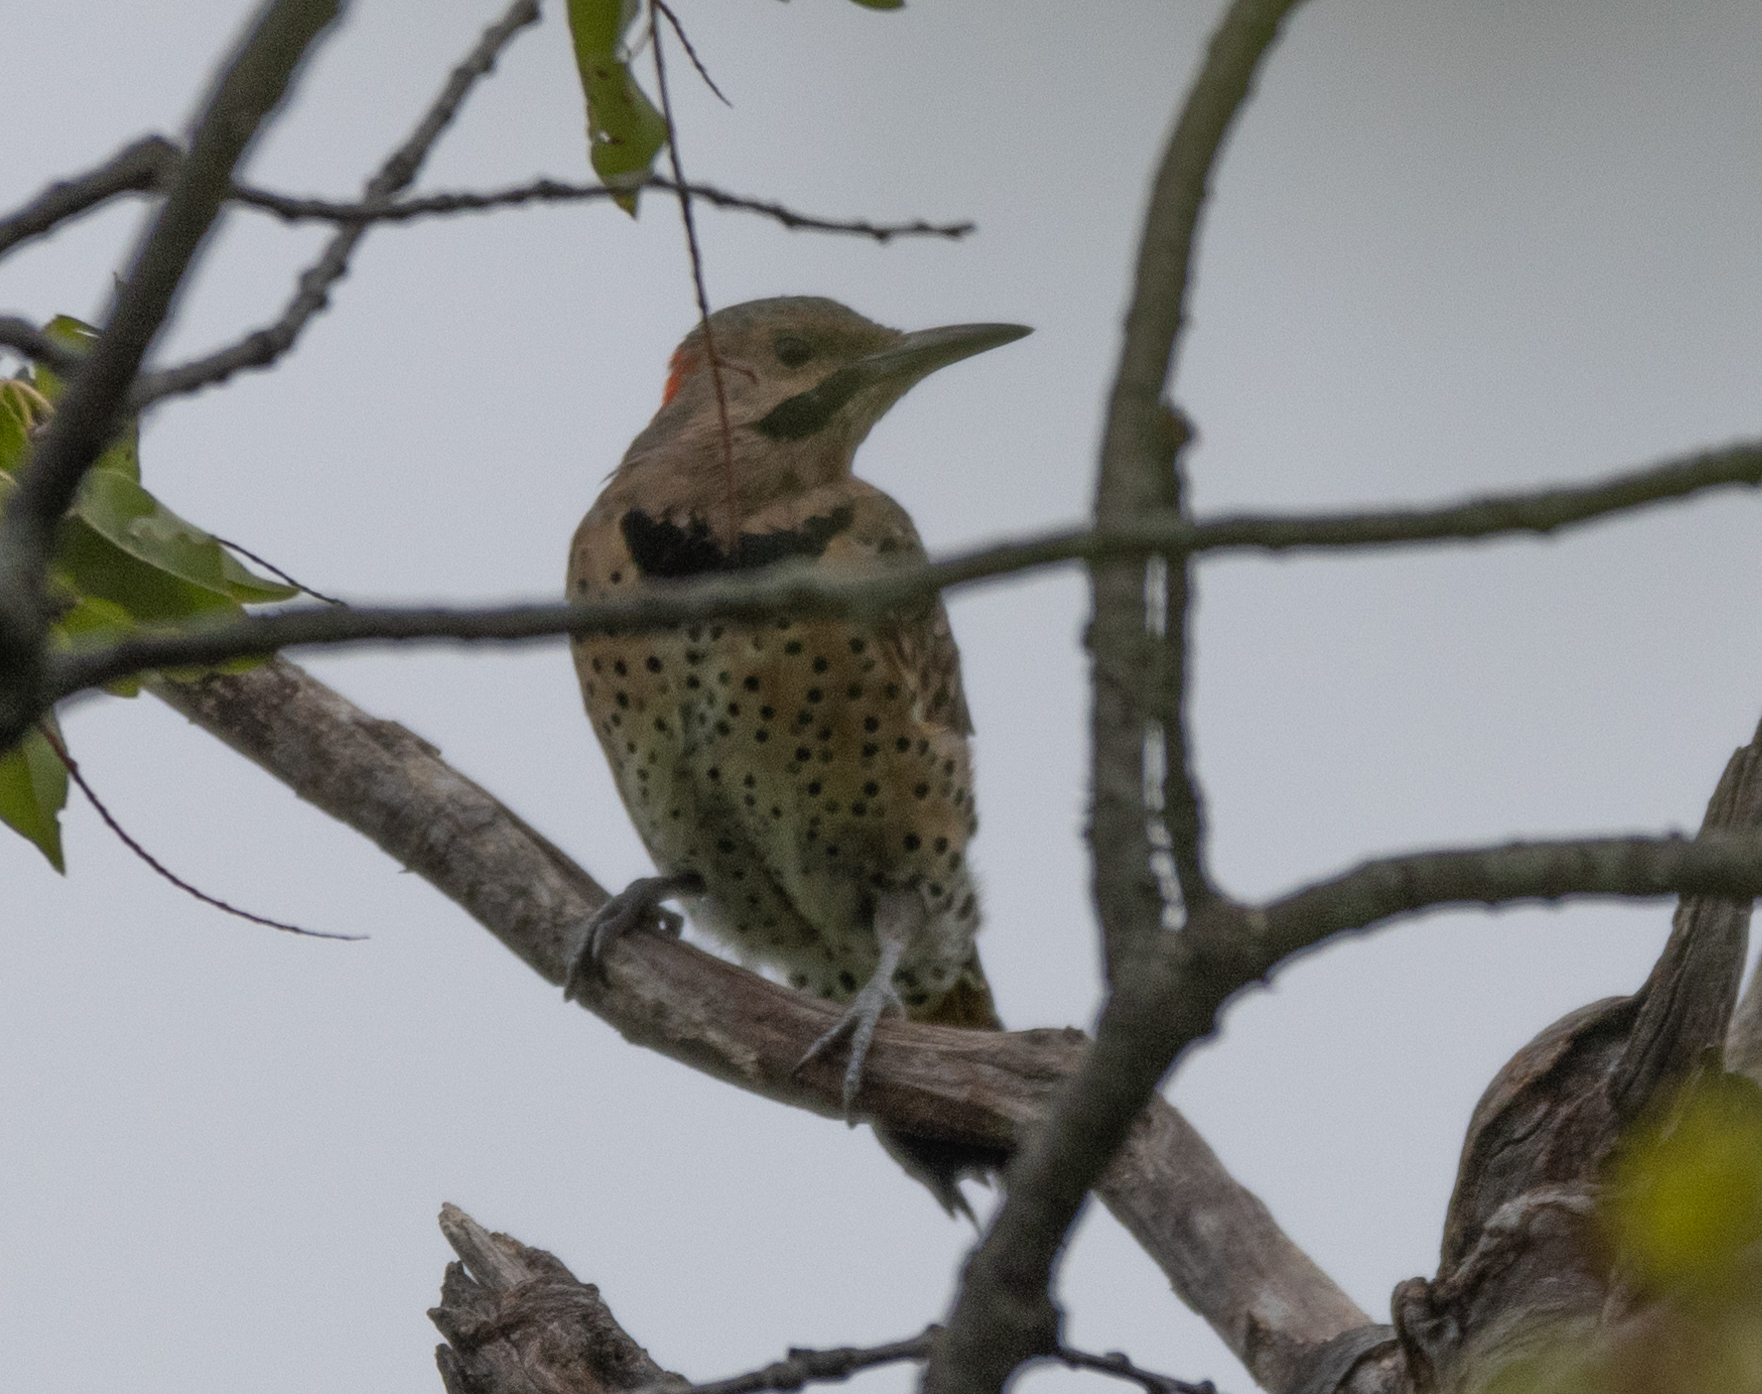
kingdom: Animalia
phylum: Chordata
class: Aves
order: Piciformes
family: Picidae
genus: Colaptes
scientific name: Colaptes auratus
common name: Northern flicker
